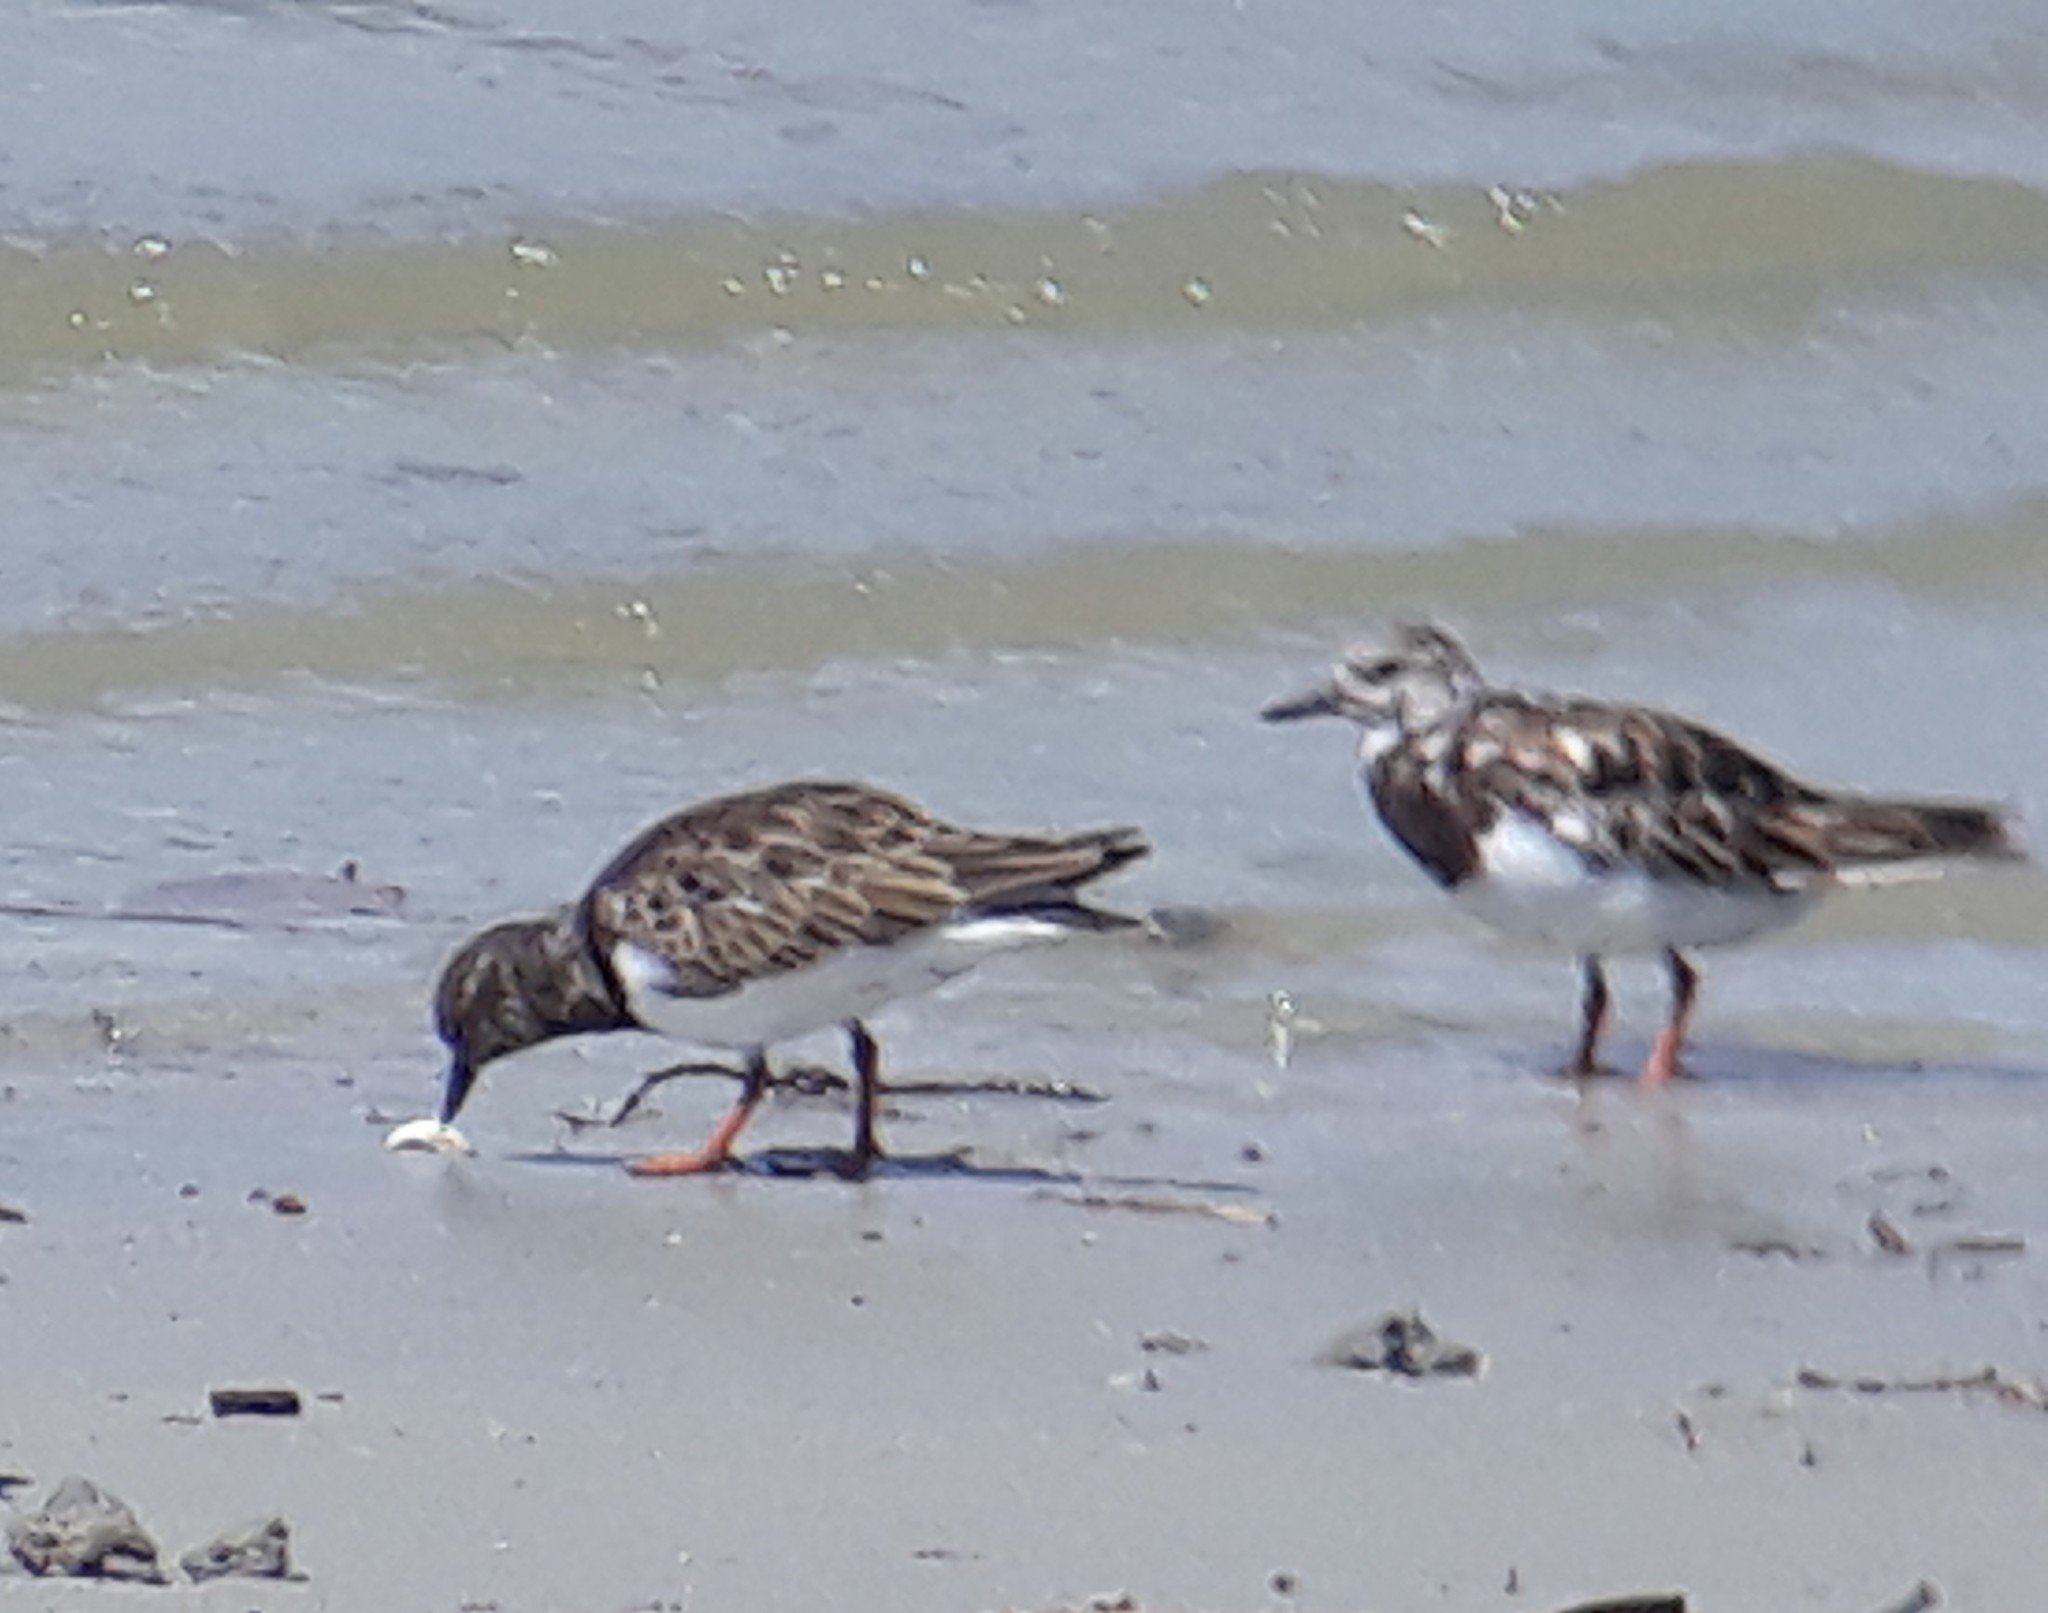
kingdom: Animalia
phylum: Chordata
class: Aves
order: Charadriiformes
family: Scolopacidae
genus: Arenaria
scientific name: Arenaria interpres
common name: Ruddy turnstone
